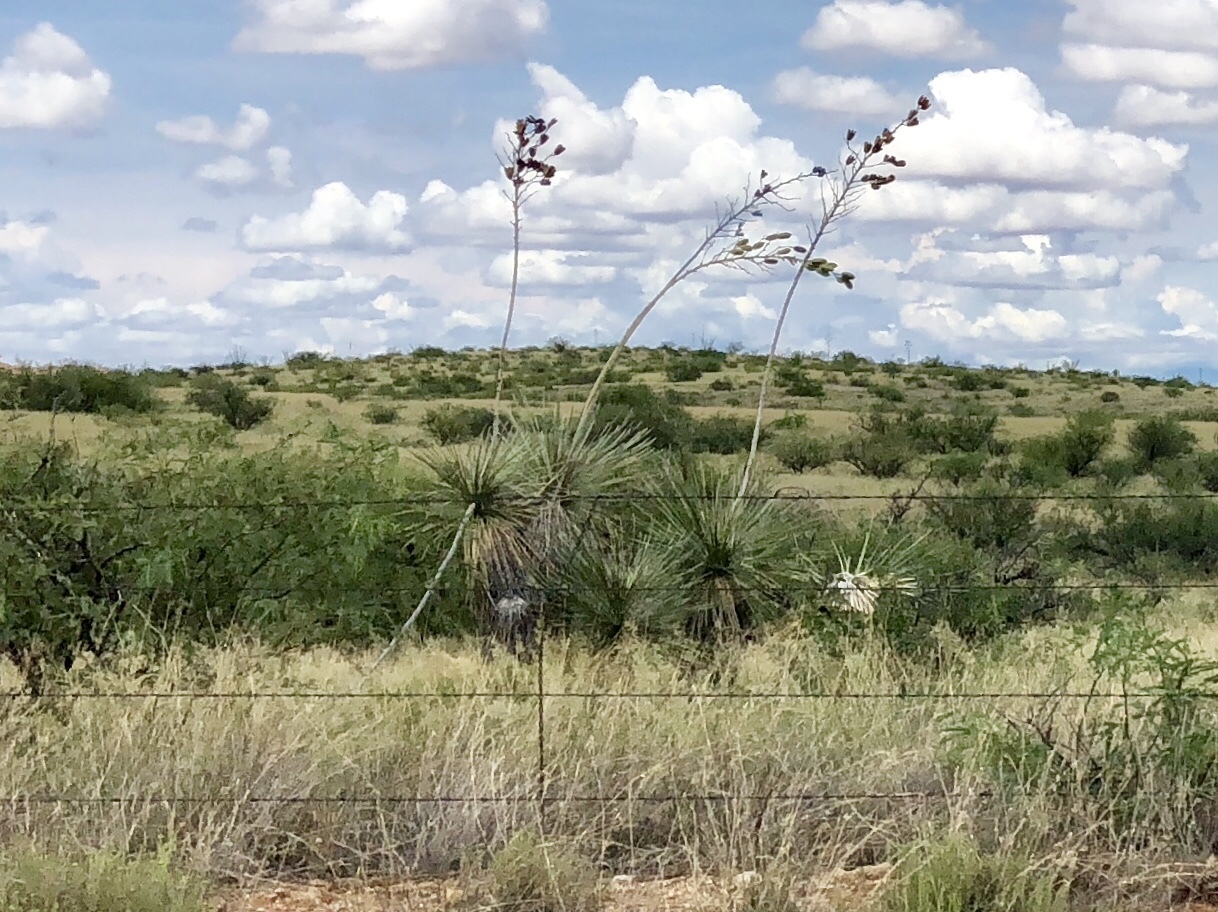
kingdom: Plantae
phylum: Tracheophyta
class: Liliopsida
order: Asparagales
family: Asparagaceae
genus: Yucca
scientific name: Yucca elata
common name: Palmella
